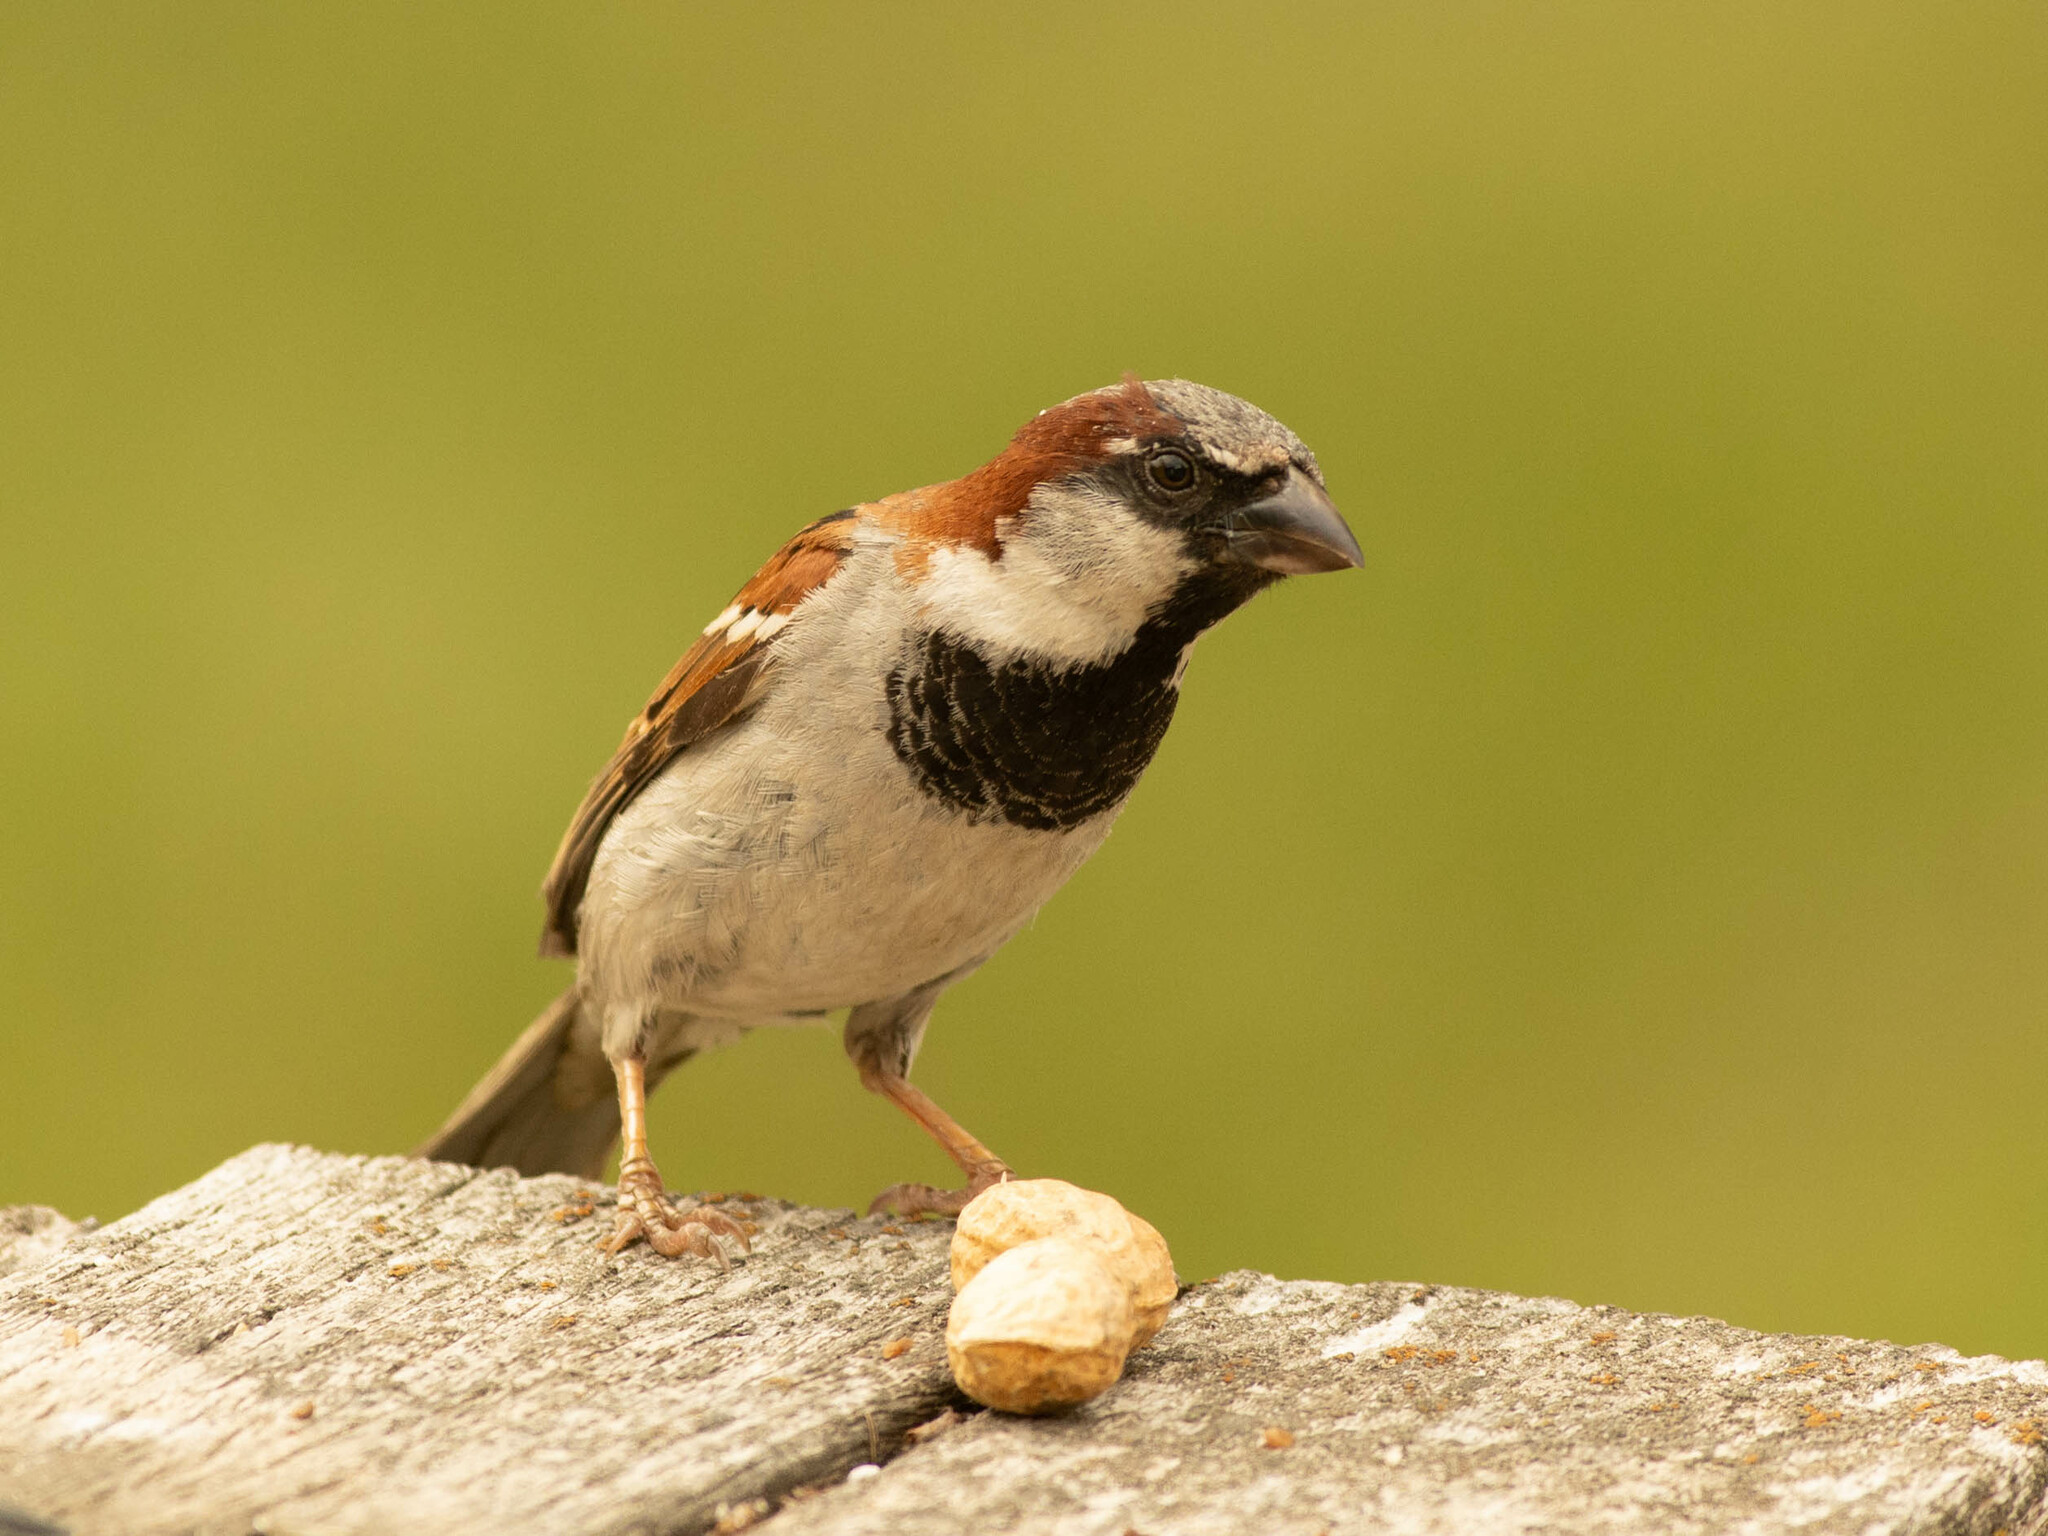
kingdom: Animalia
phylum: Chordata
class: Aves
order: Passeriformes
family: Passeridae
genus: Passer
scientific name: Passer domesticus
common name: House sparrow
